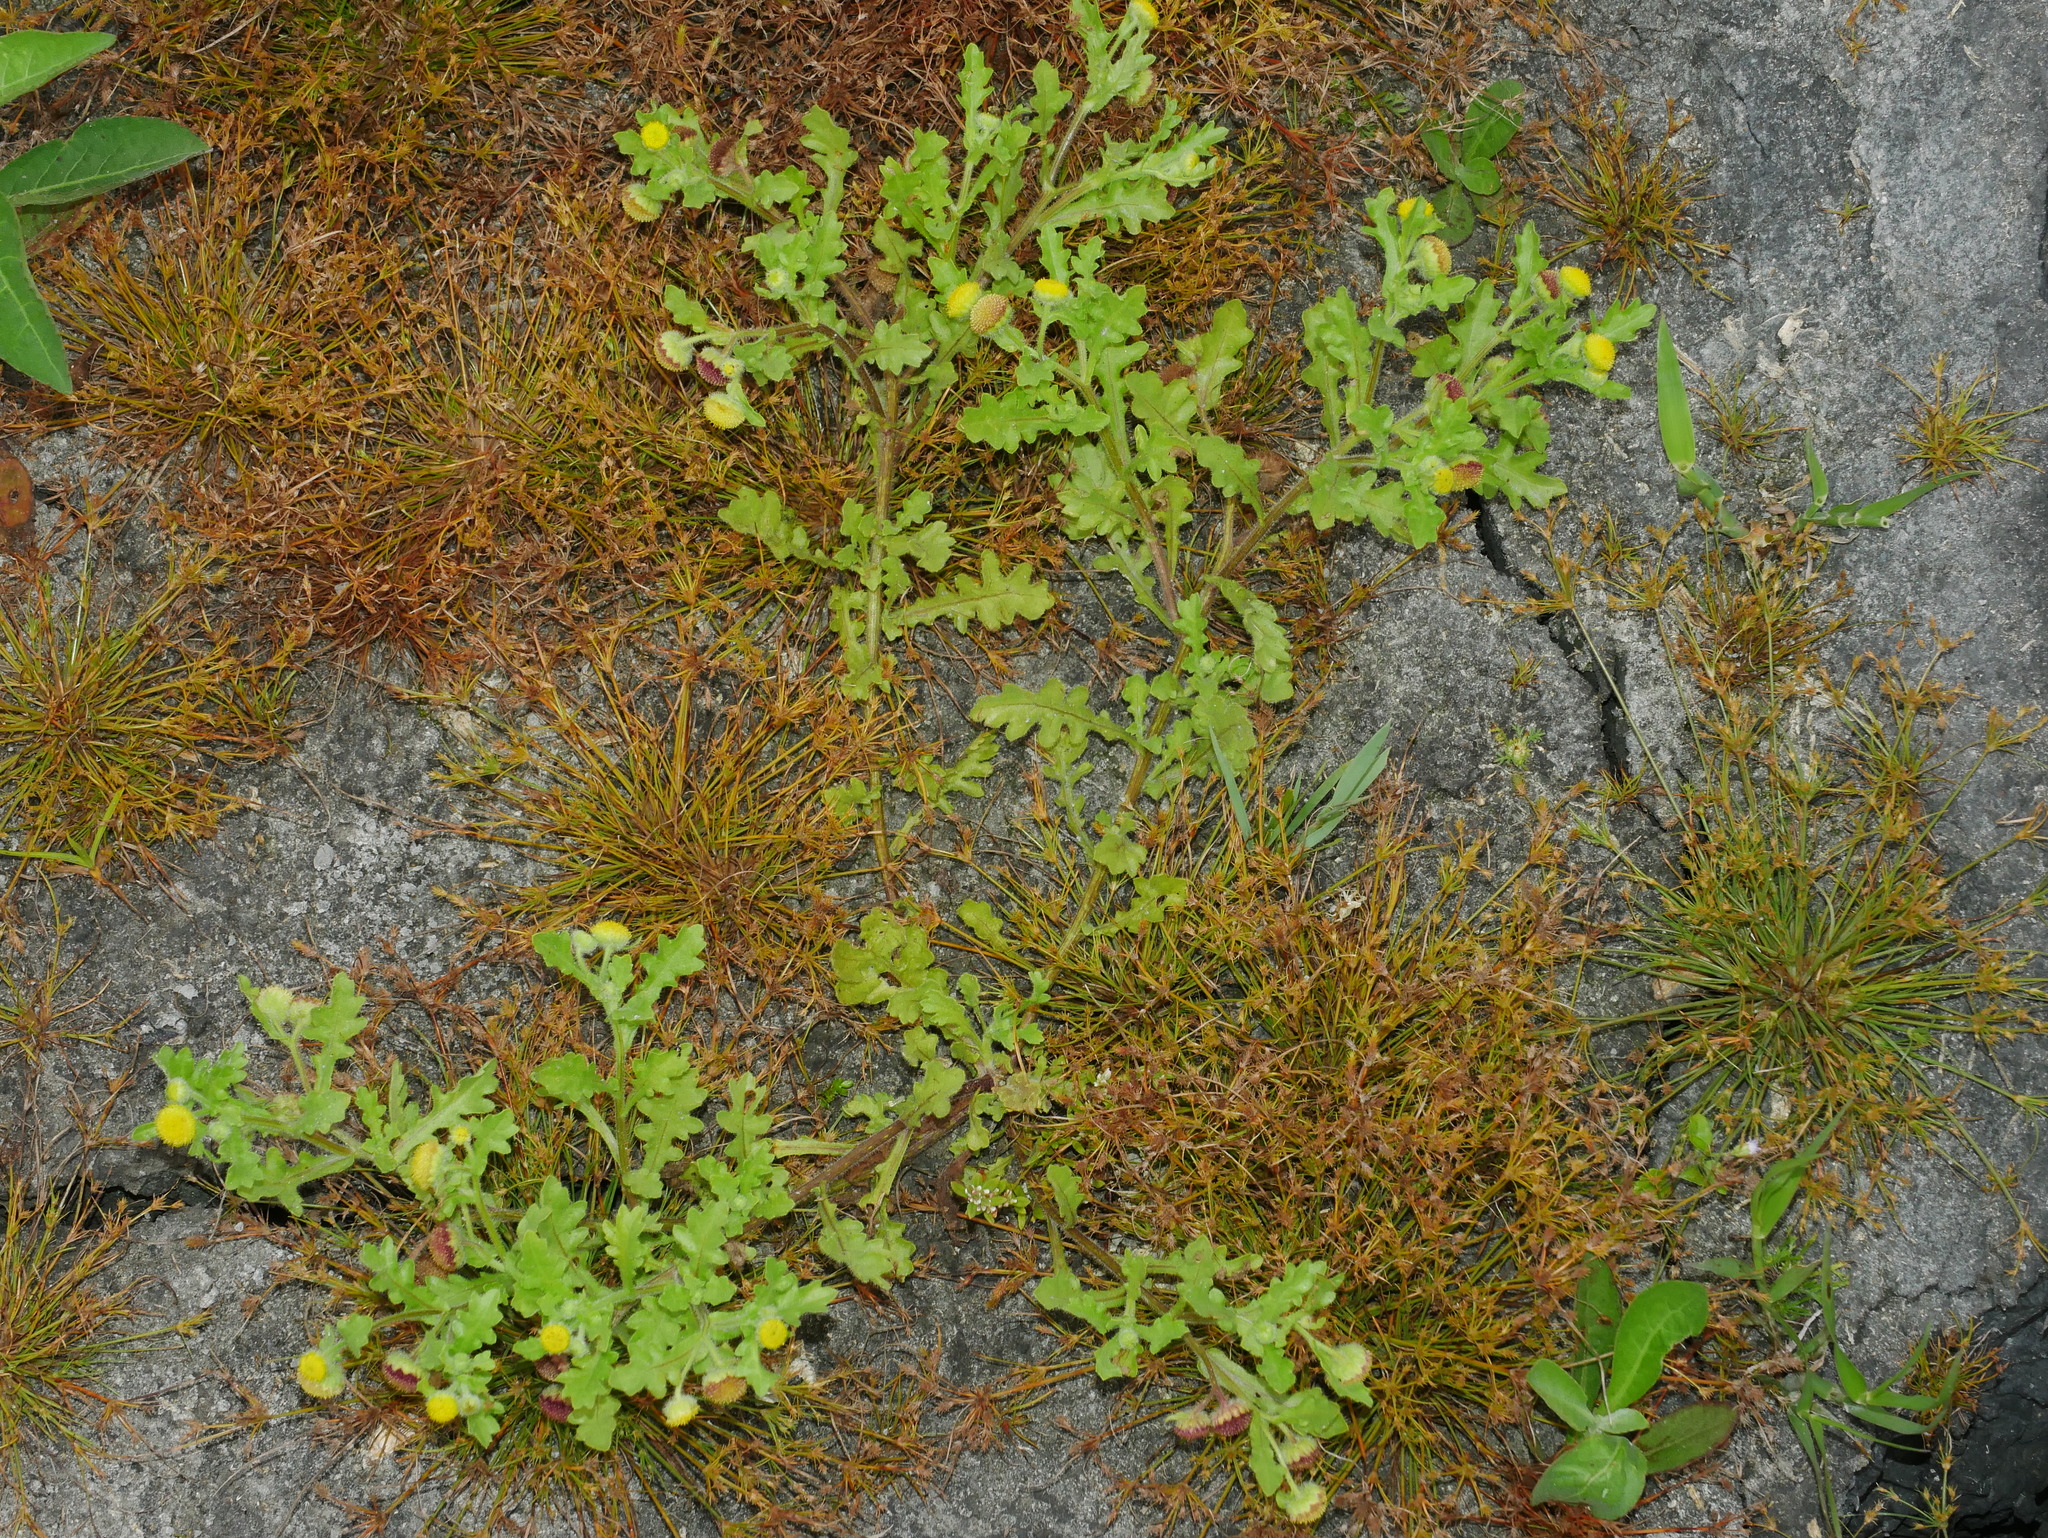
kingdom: Plantae
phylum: Tracheophyta
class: Magnoliopsida
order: Asterales
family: Asteraceae
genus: Grangea
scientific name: Grangea maderaspatana
